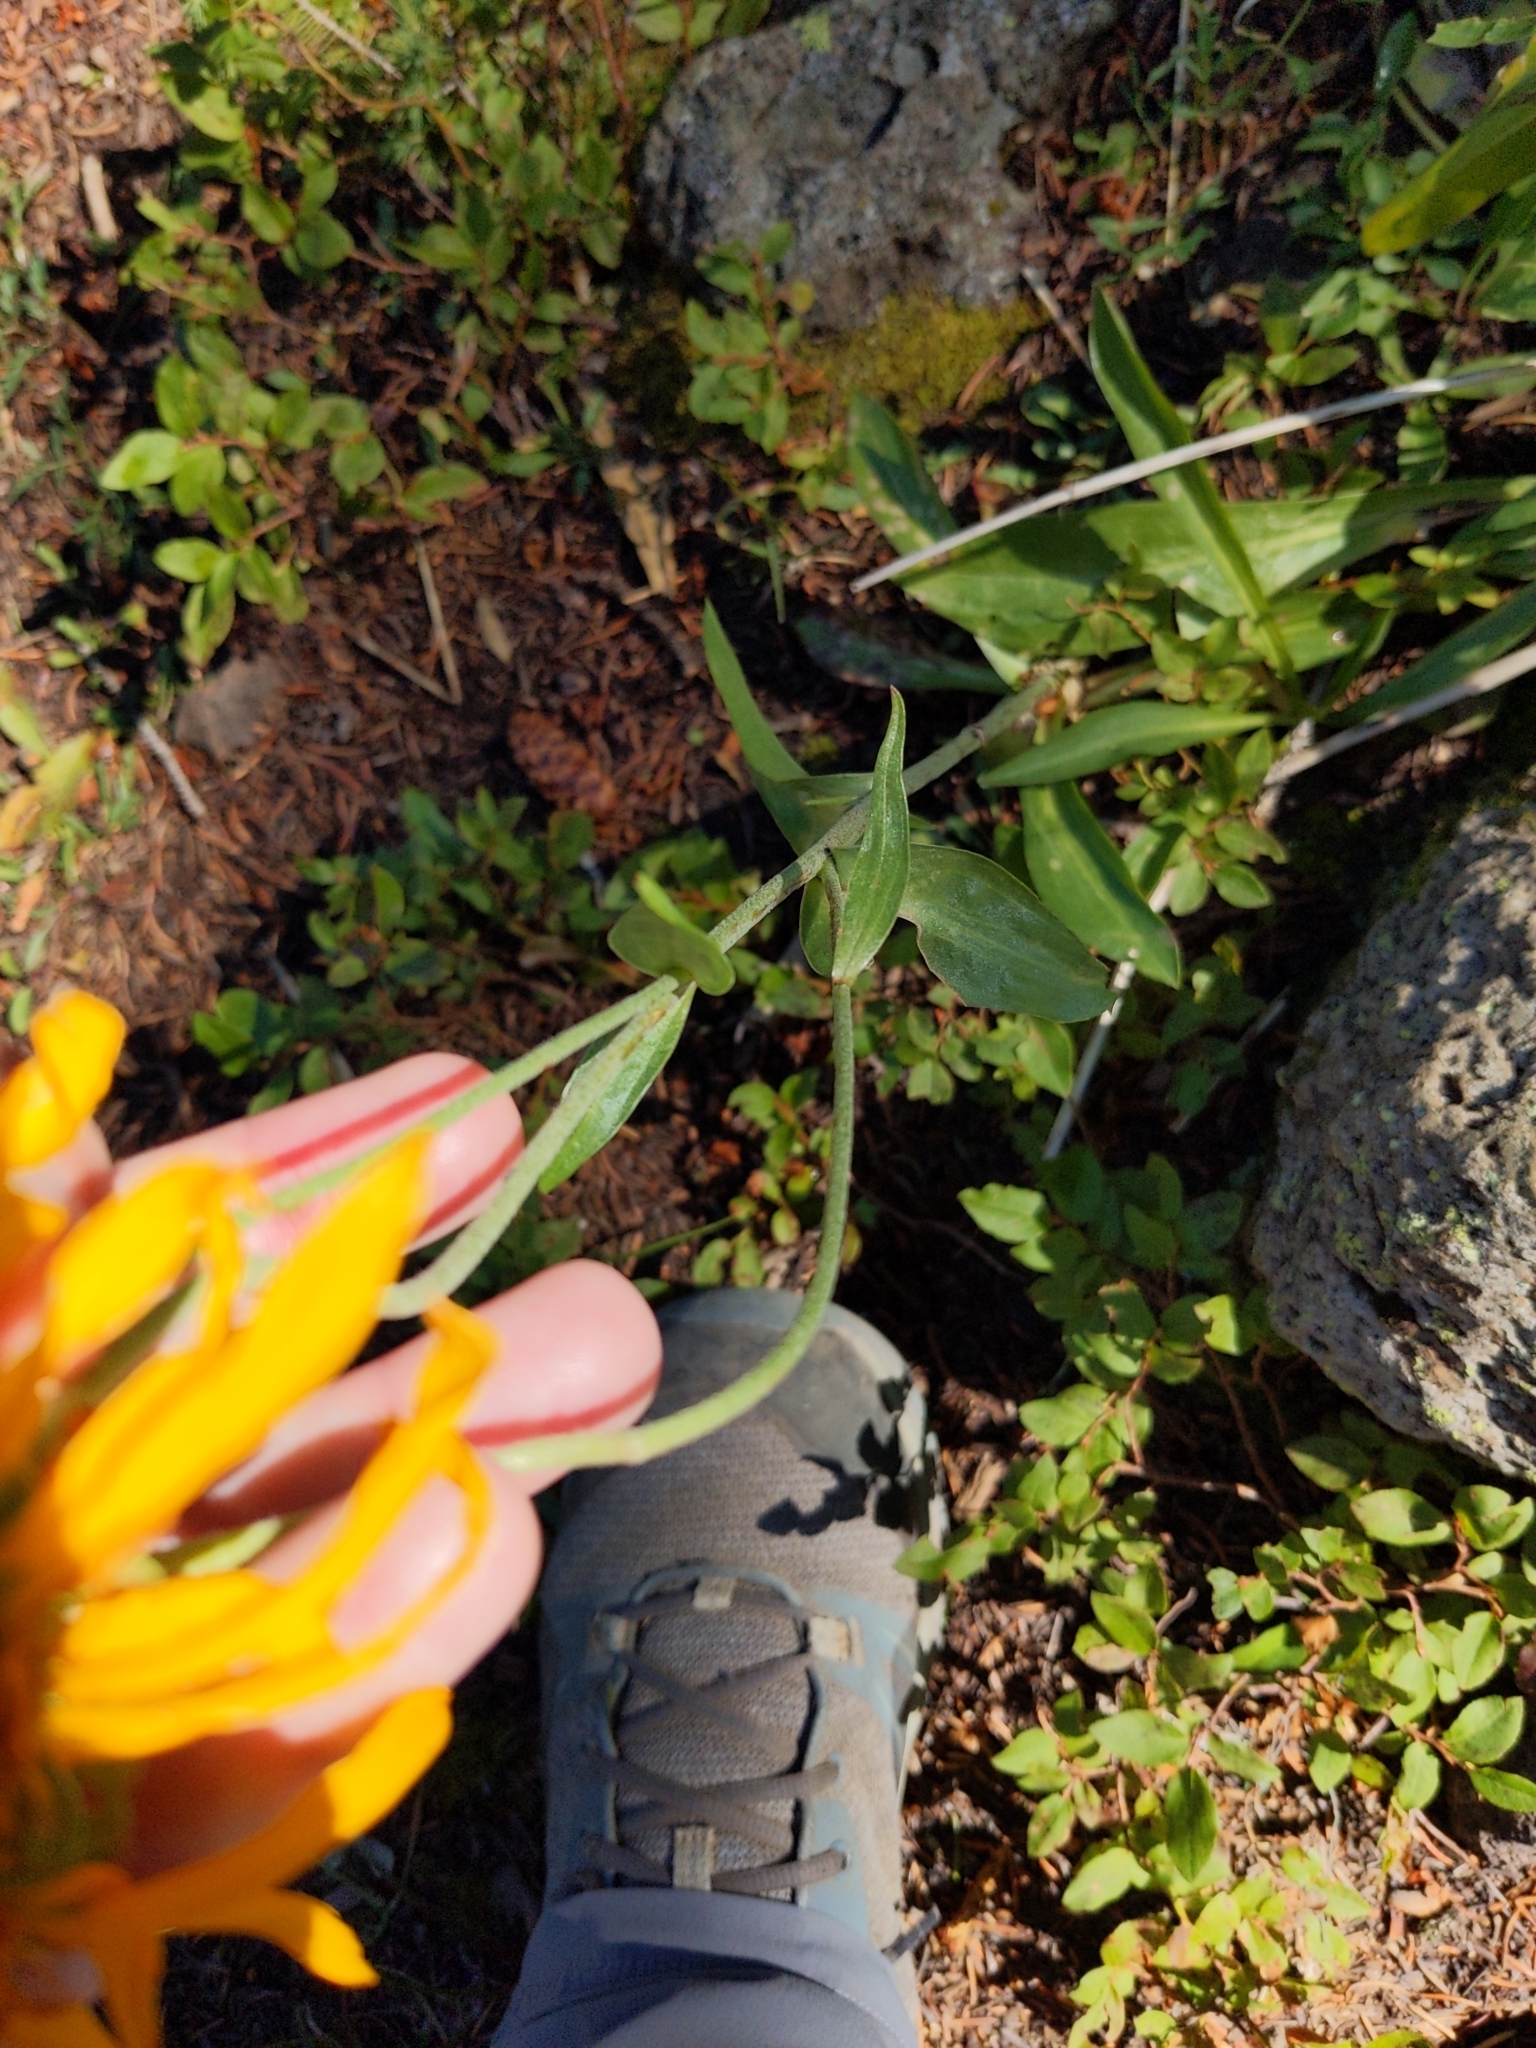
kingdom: Plantae
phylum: Tracheophyta
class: Magnoliopsida
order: Asterales
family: Asteraceae
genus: Hymenoxys
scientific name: Hymenoxys hoopesii
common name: Orange-sneezeweed
